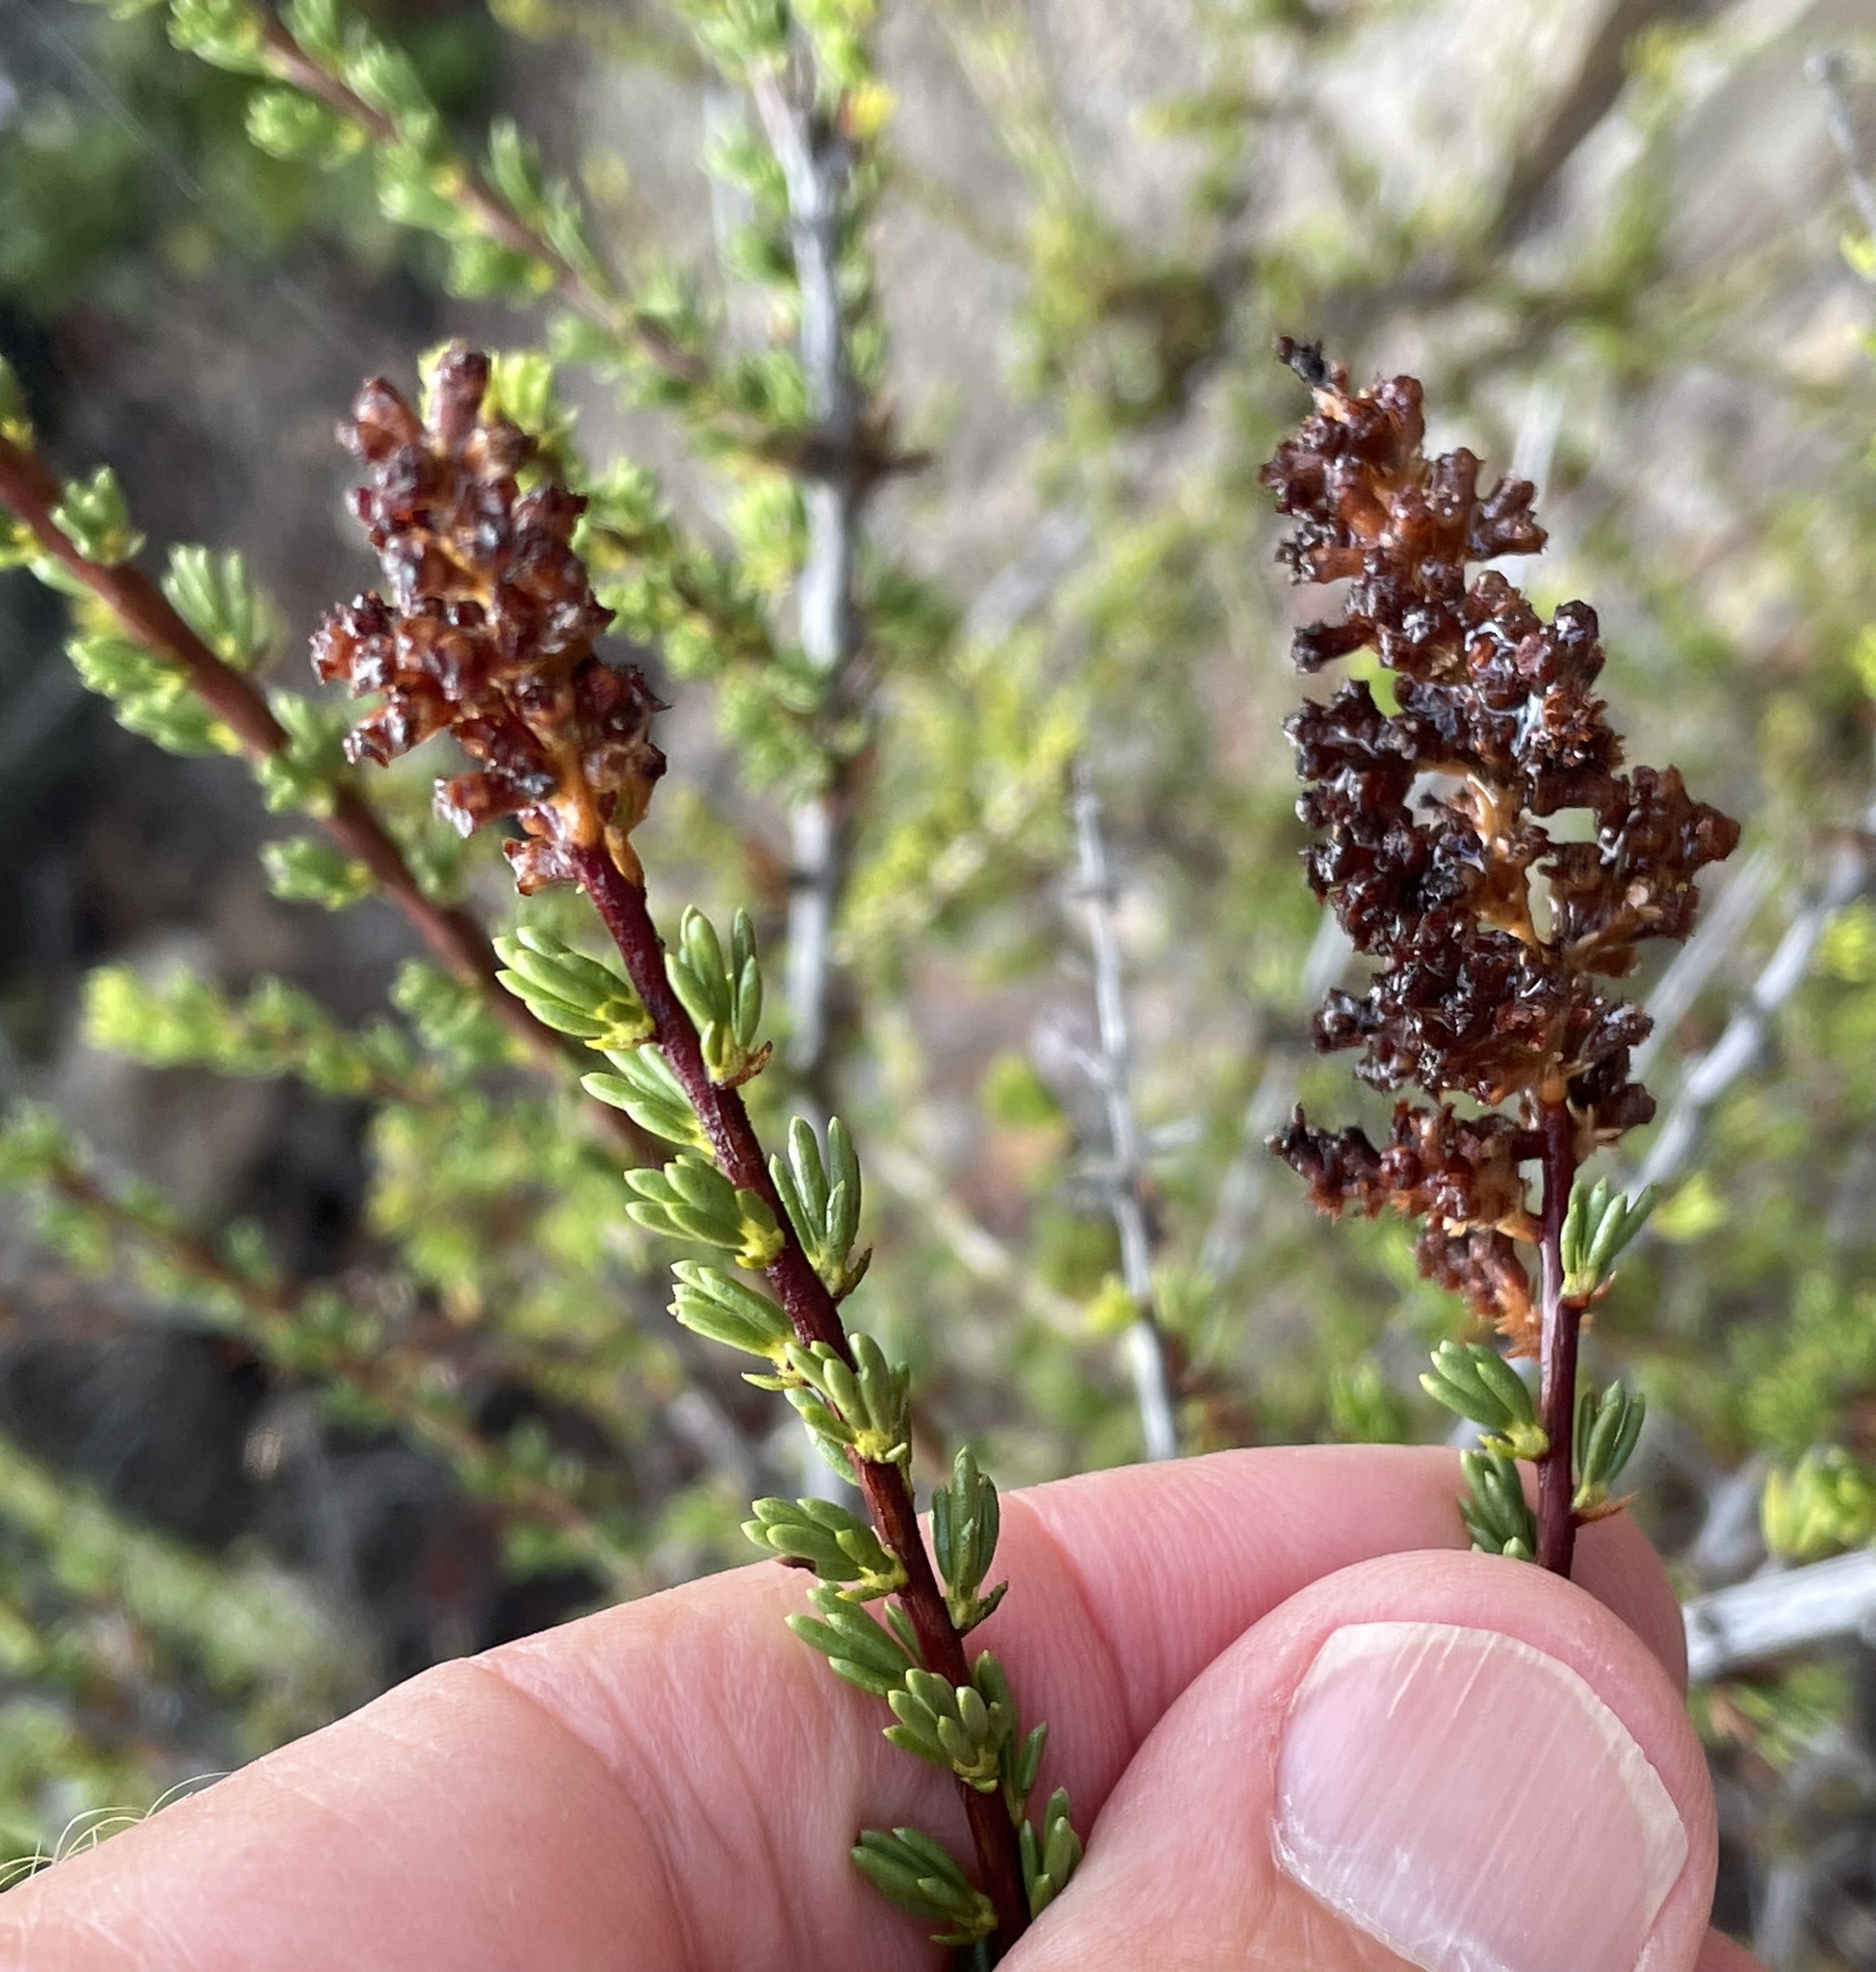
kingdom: Plantae
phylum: Tracheophyta
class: Magnoliopsida
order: Rosales
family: Rosaceae
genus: Adenostoma
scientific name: Adenostoma fasciculatum
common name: Chamise
